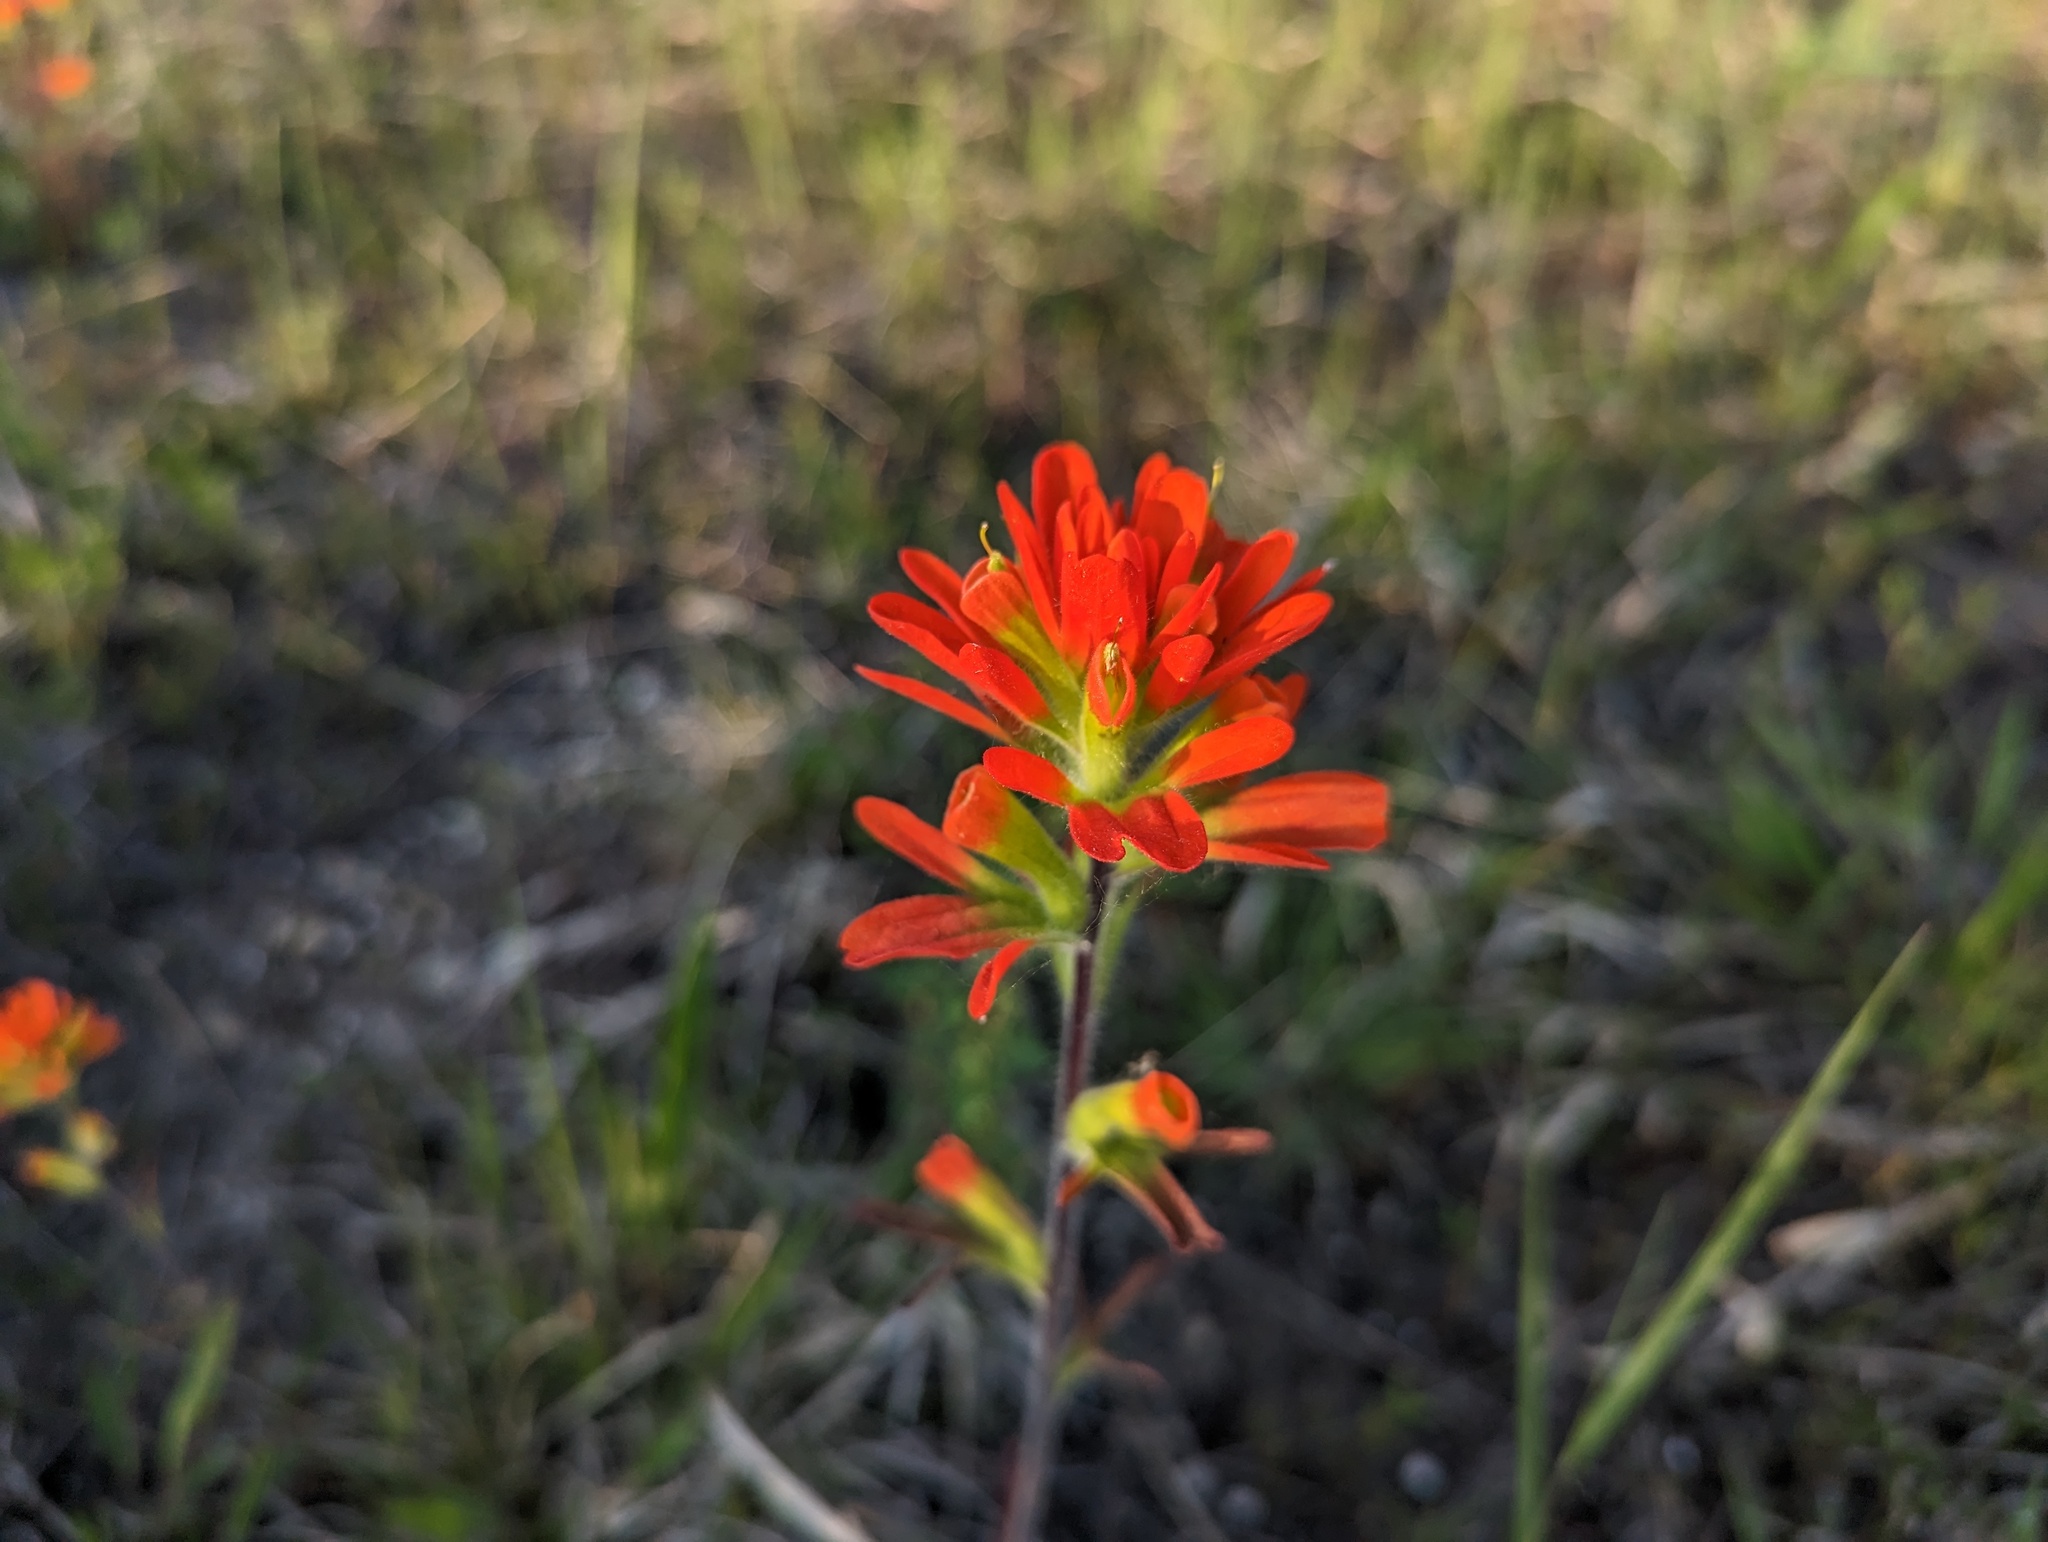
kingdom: Plantae
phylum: Tracheophyta
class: Magnoliopsida
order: Lamiales
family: Orobanchaceae
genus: Castilleja
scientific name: Castilleja coccinea
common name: Scarlet paintbrush
